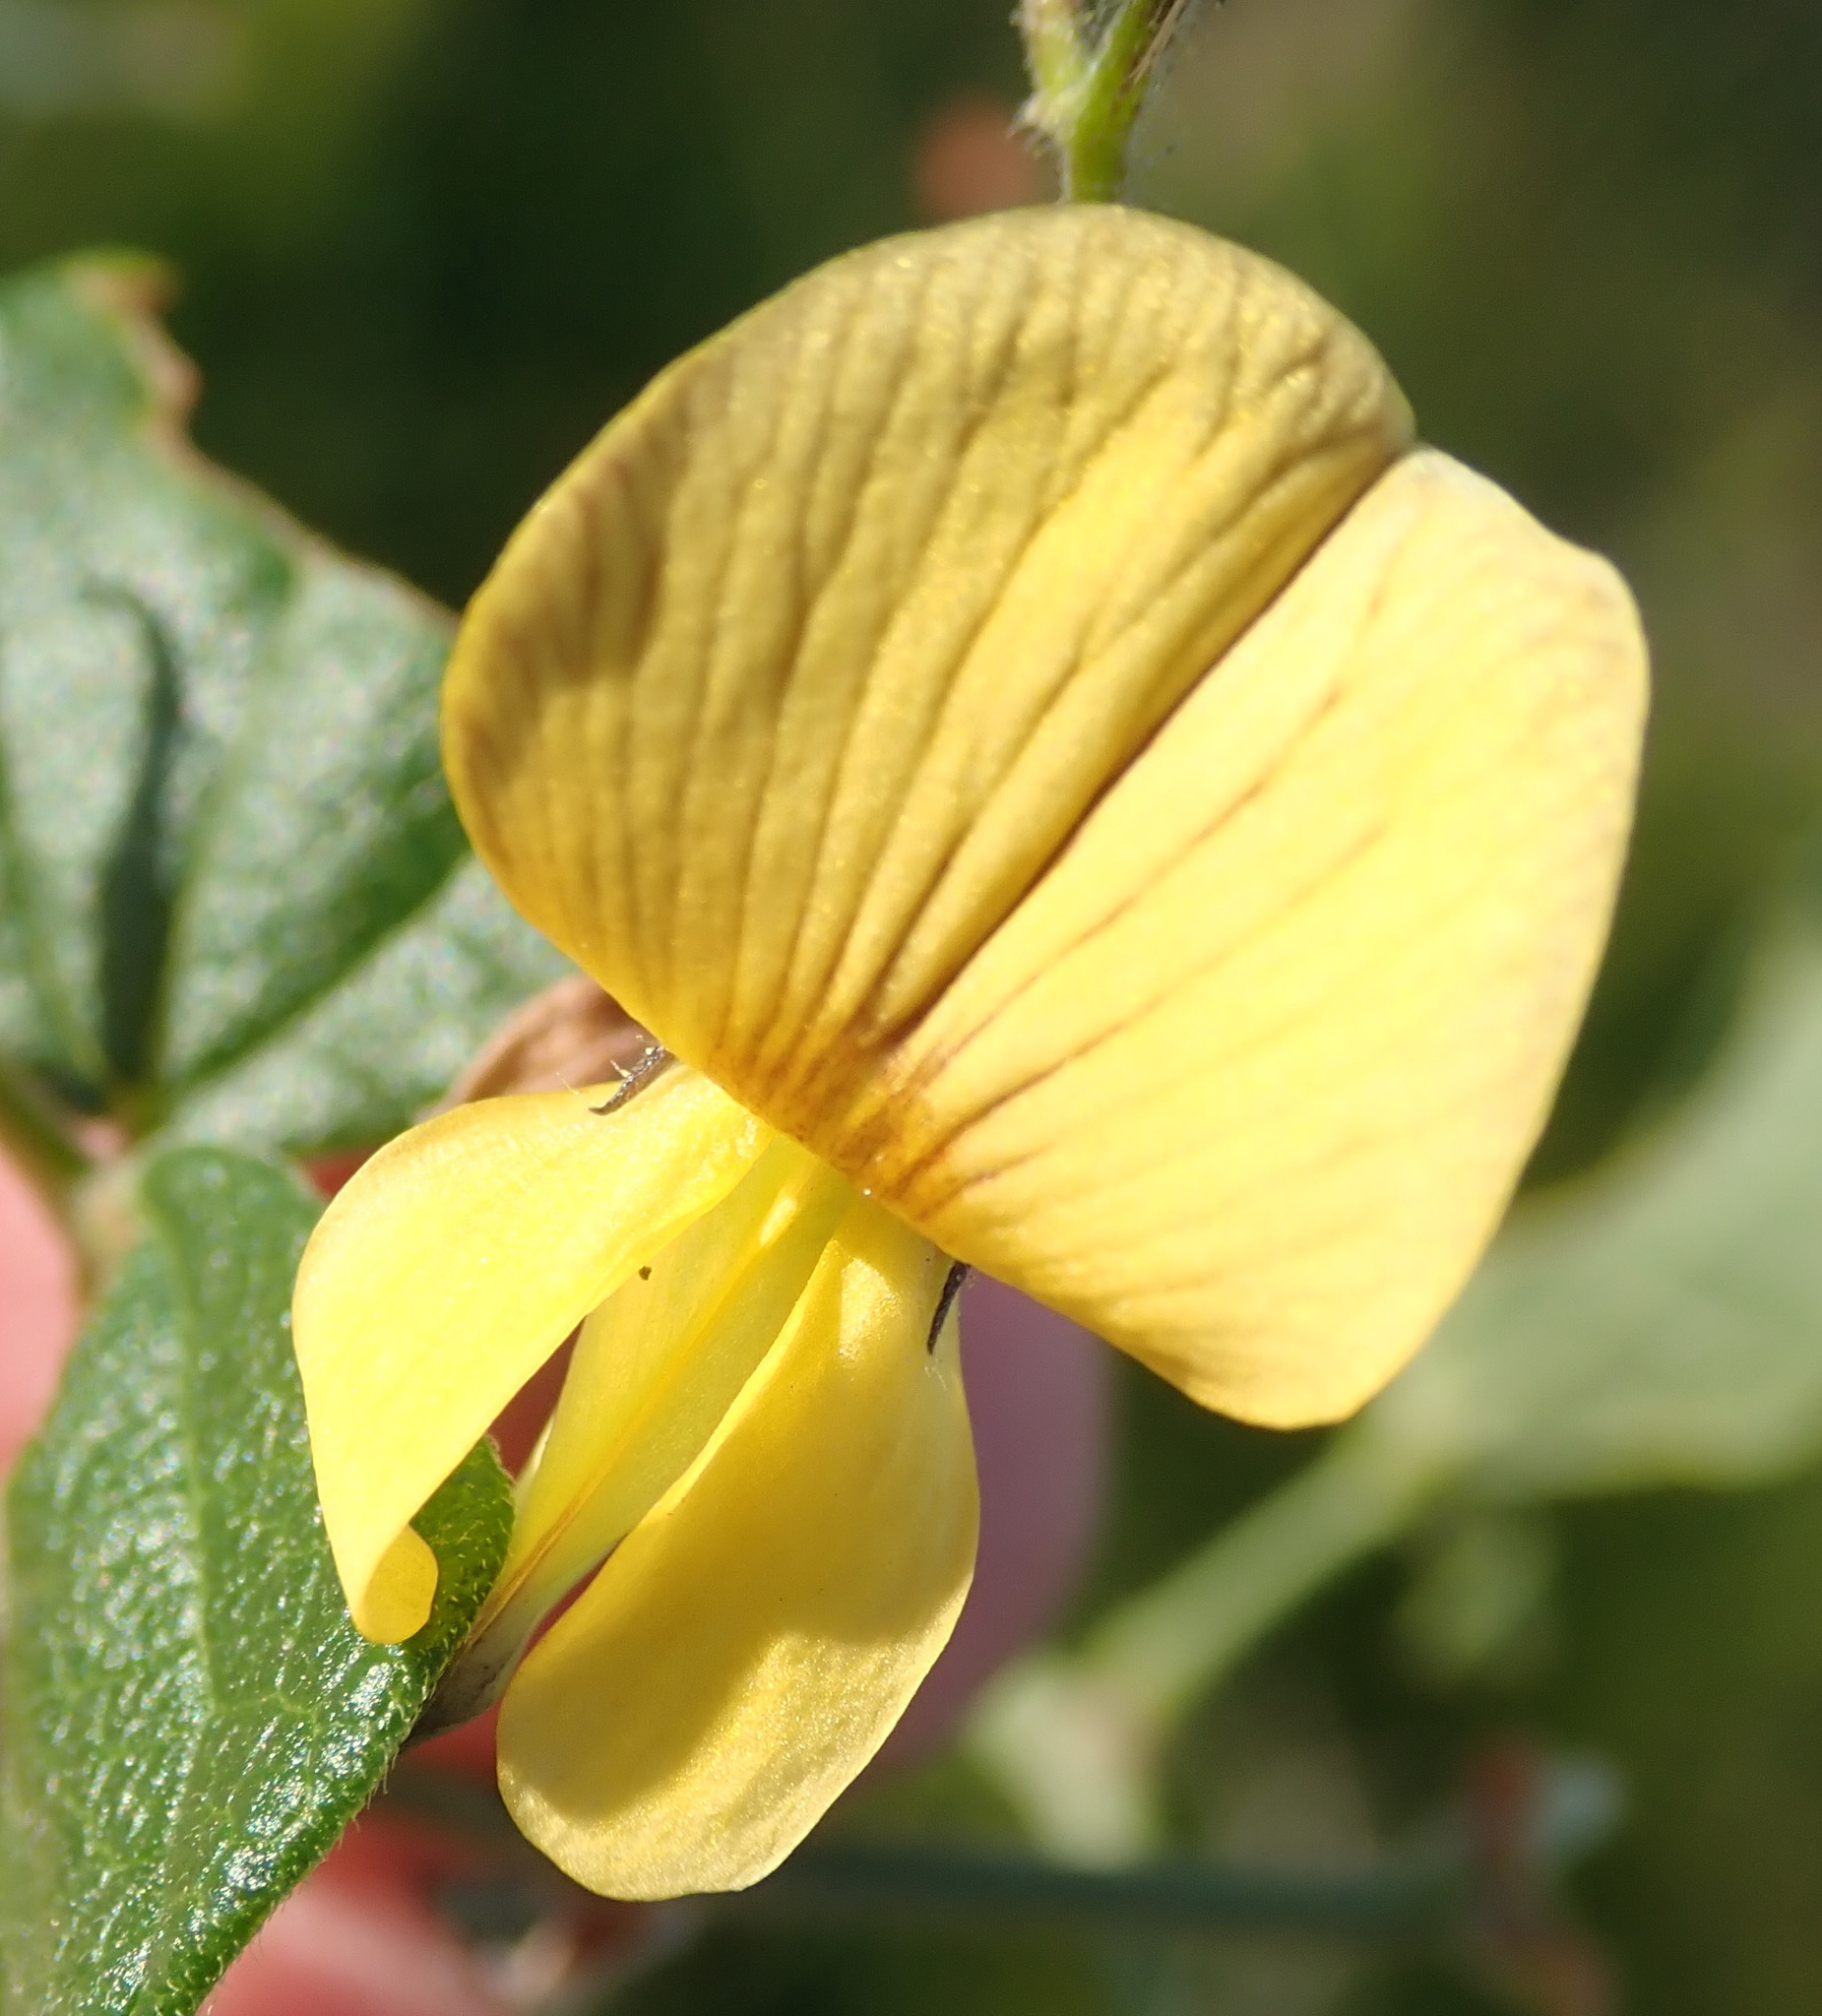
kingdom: Plantae
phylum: Tracheophyta
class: Magnoliopsida
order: Fabales
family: Fabaceae
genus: Rhynchosia
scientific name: Rhynchosia caribaea
